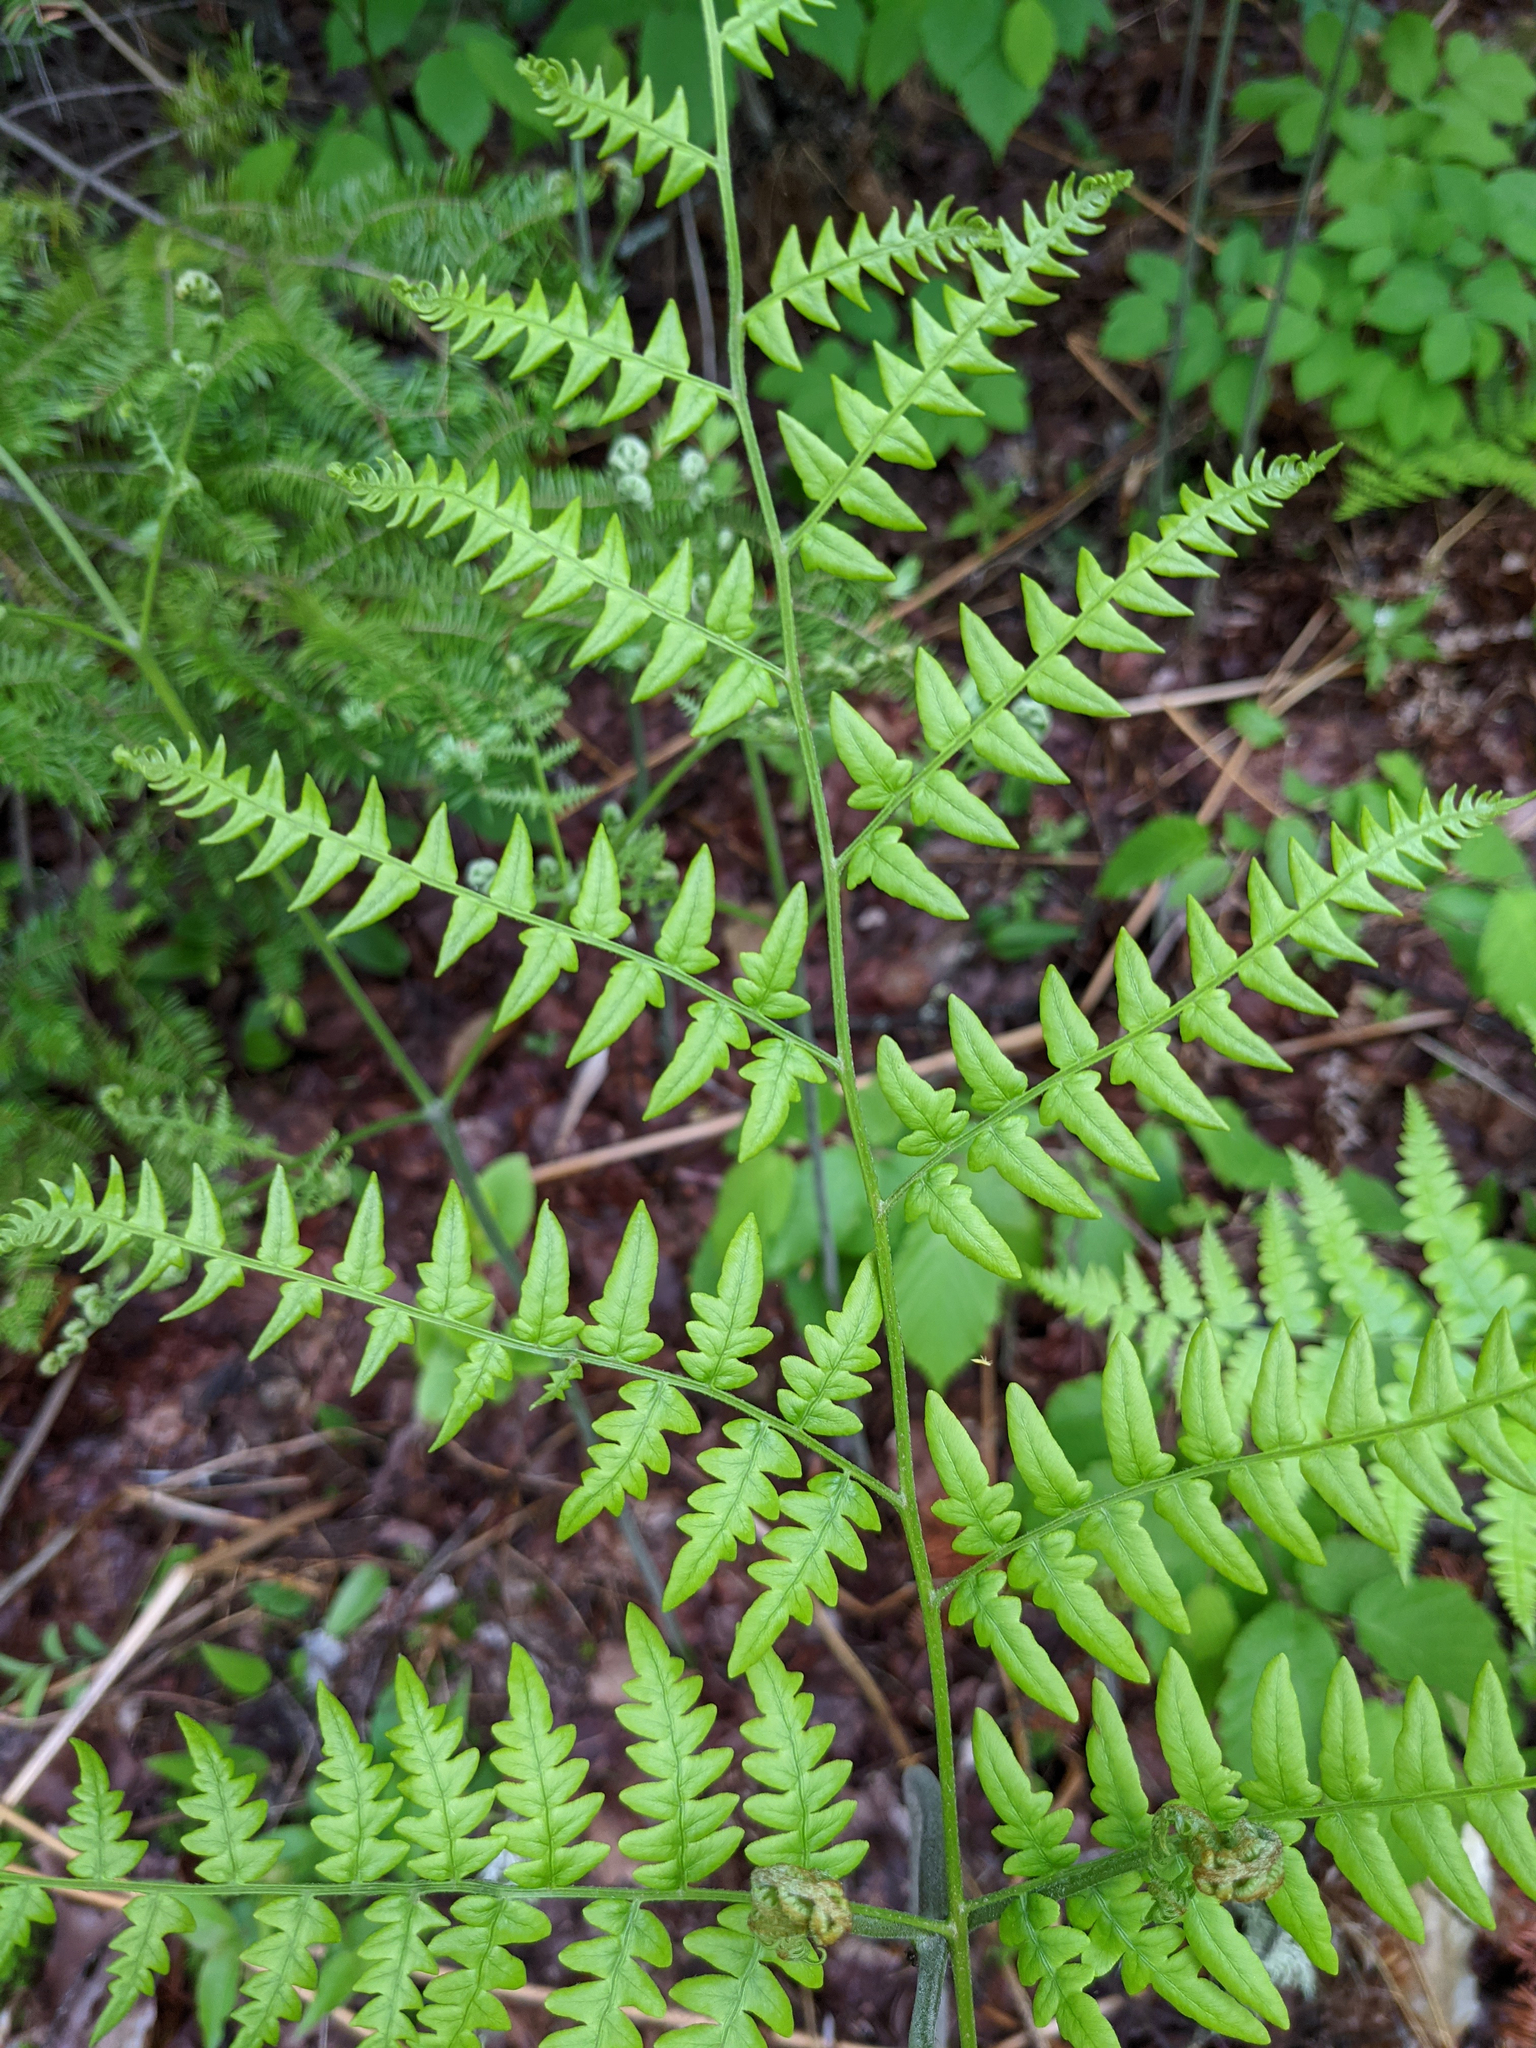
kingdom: Plantae
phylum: Tracheophyta
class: Polypodiopsida
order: Polypodiales
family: Dennstaedtiaceae
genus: Pteridium
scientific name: Pteridium aquilinum
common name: Bracken
